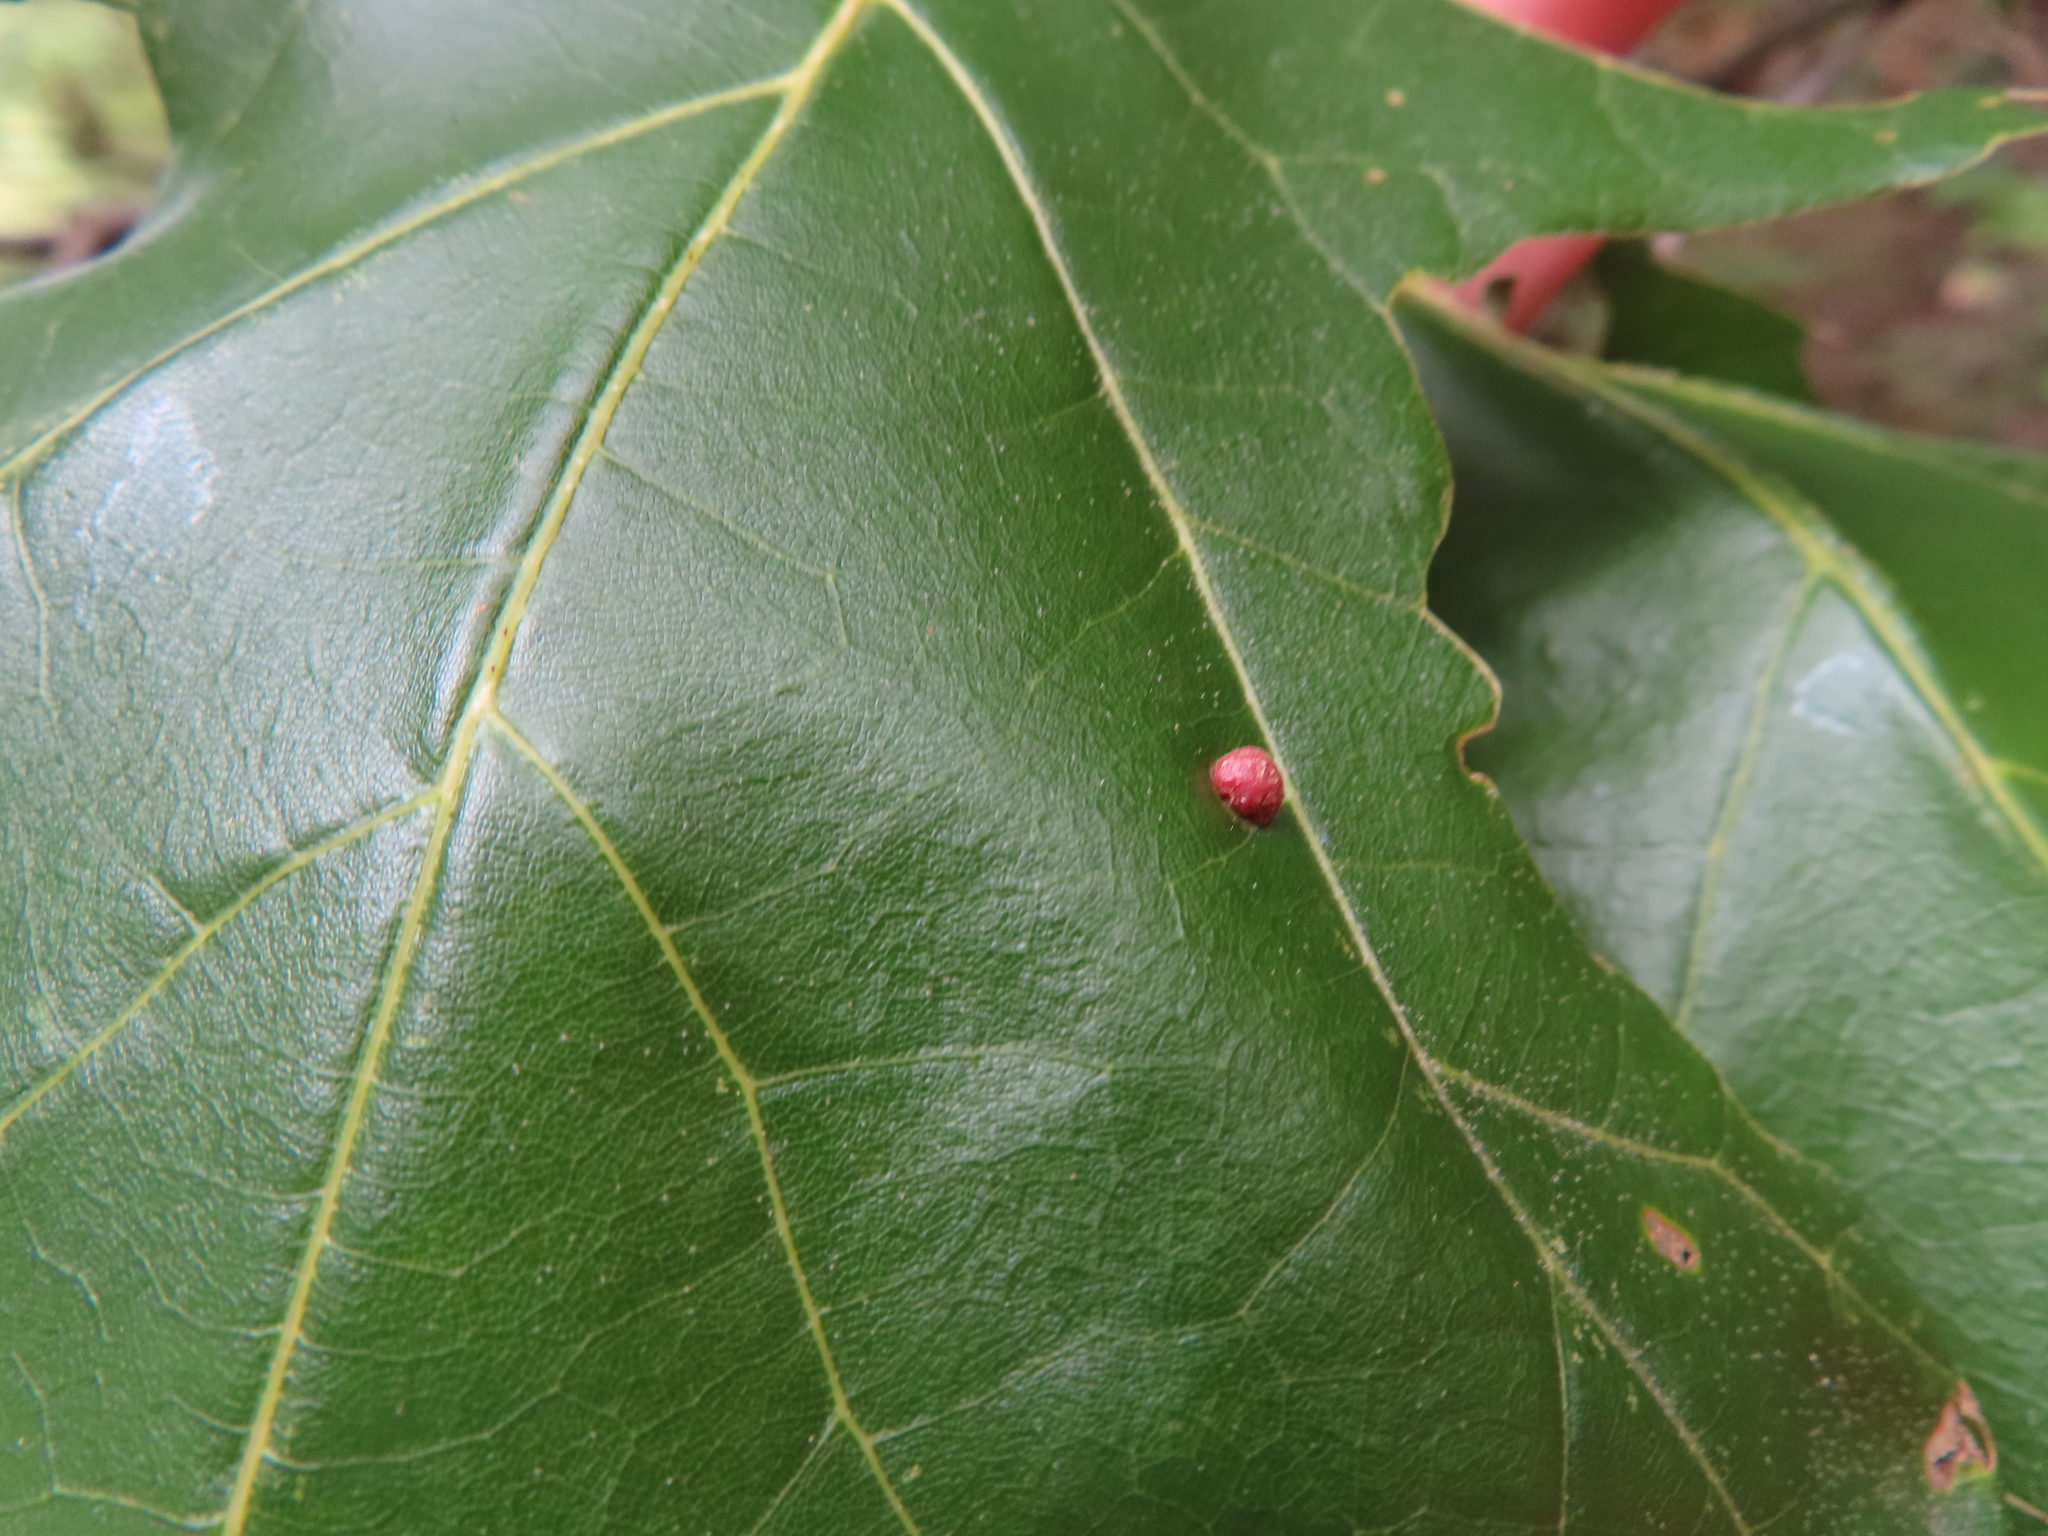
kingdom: Animalia
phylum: Arthropoda
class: Insecta
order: Diptera
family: Cecidomyiidae
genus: Polystepha
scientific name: Polystepha pilulae
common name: Oak leaf gall midge
